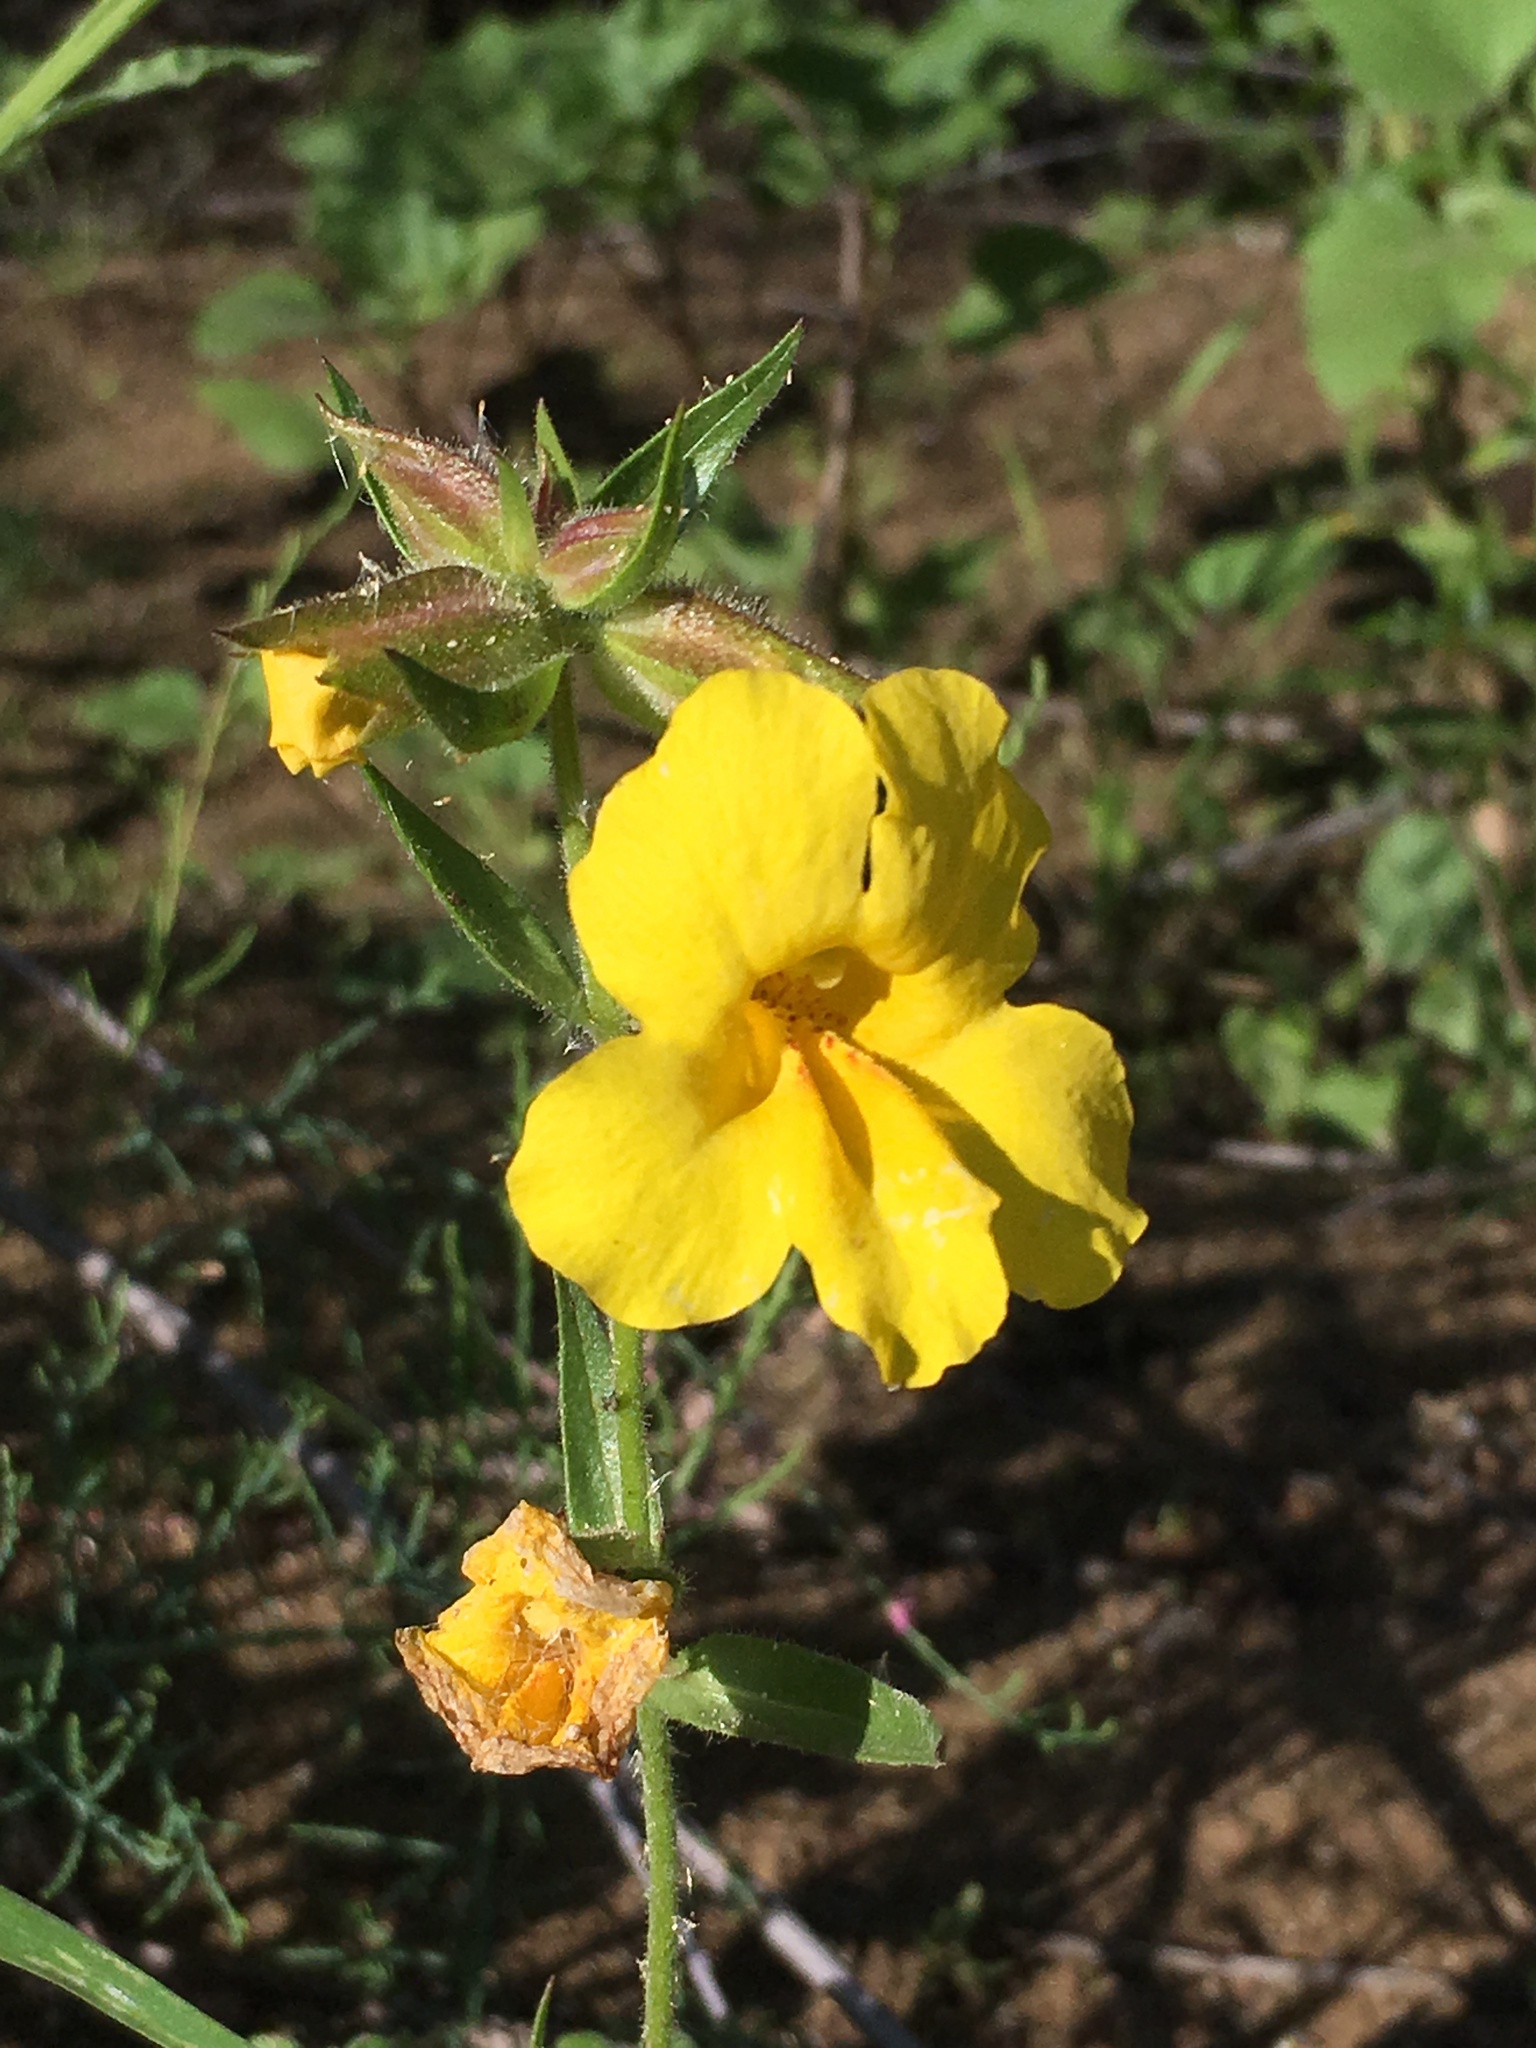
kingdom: Plantae
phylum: Tracheophyta
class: Magnoliopsida
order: Lamiales
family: Phrymaceae
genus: Diplacus
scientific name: Diplacus brevipes
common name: Wide-throat yellow monkey-flower
